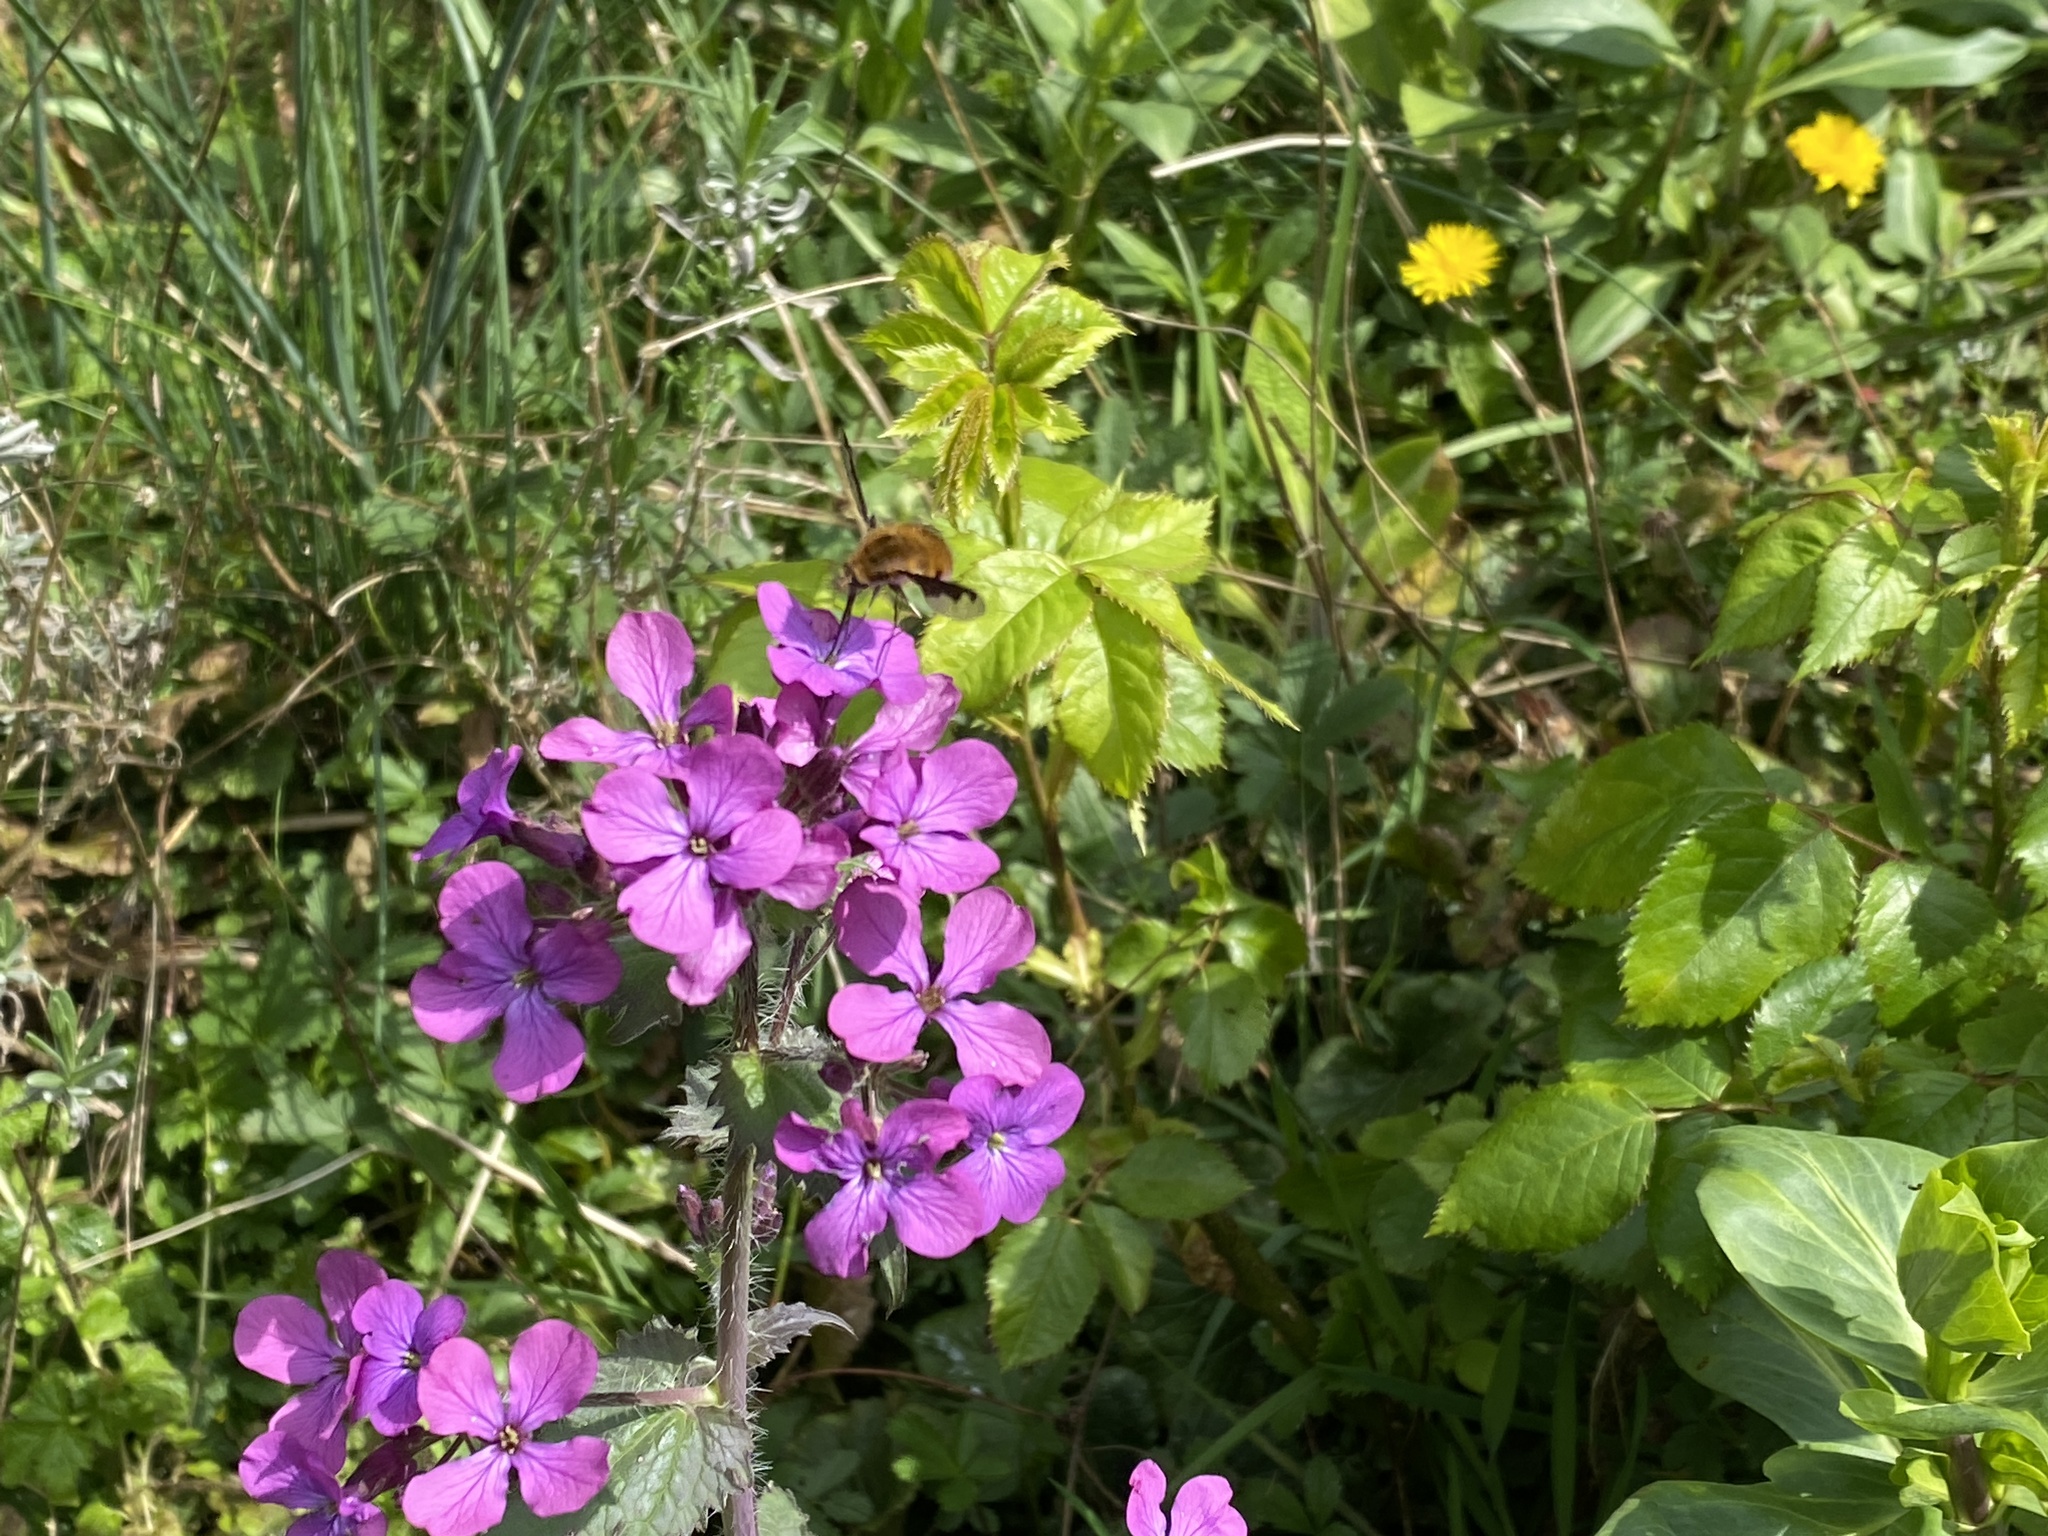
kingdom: Animalia
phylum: Arthropoda
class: Insecta
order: Diptera
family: Bombyliidae
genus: Bombylius
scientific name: Bombylius major
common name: Bee fly
